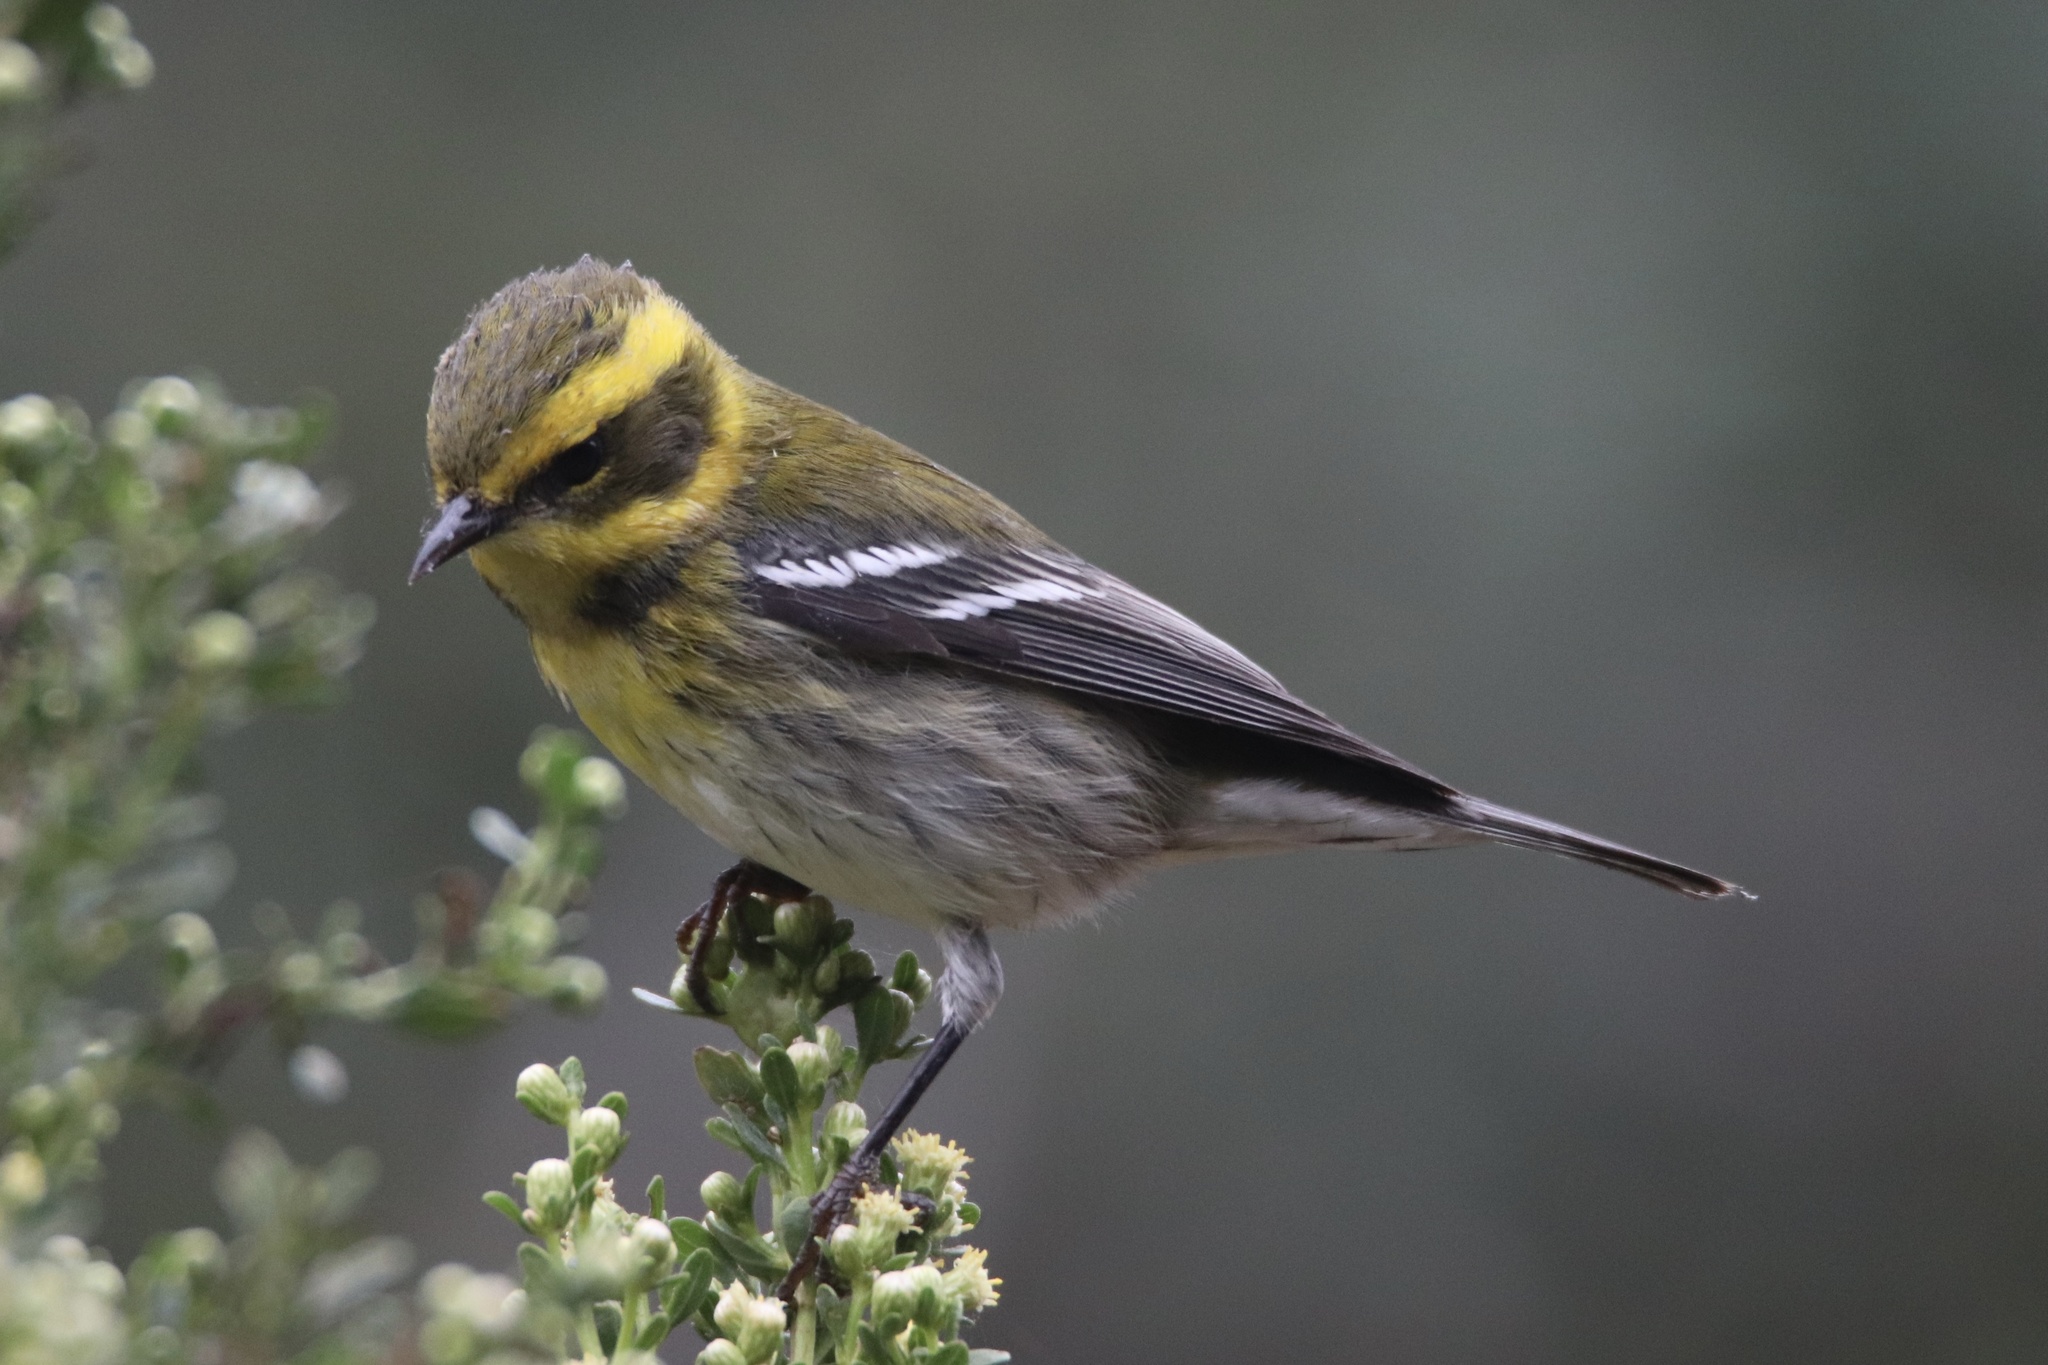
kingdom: Animalia
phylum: Chordata
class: Aves
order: Passeriformes
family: Parulidae
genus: Setophaga
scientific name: Setophaga townsendi
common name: Townsend's warbler
